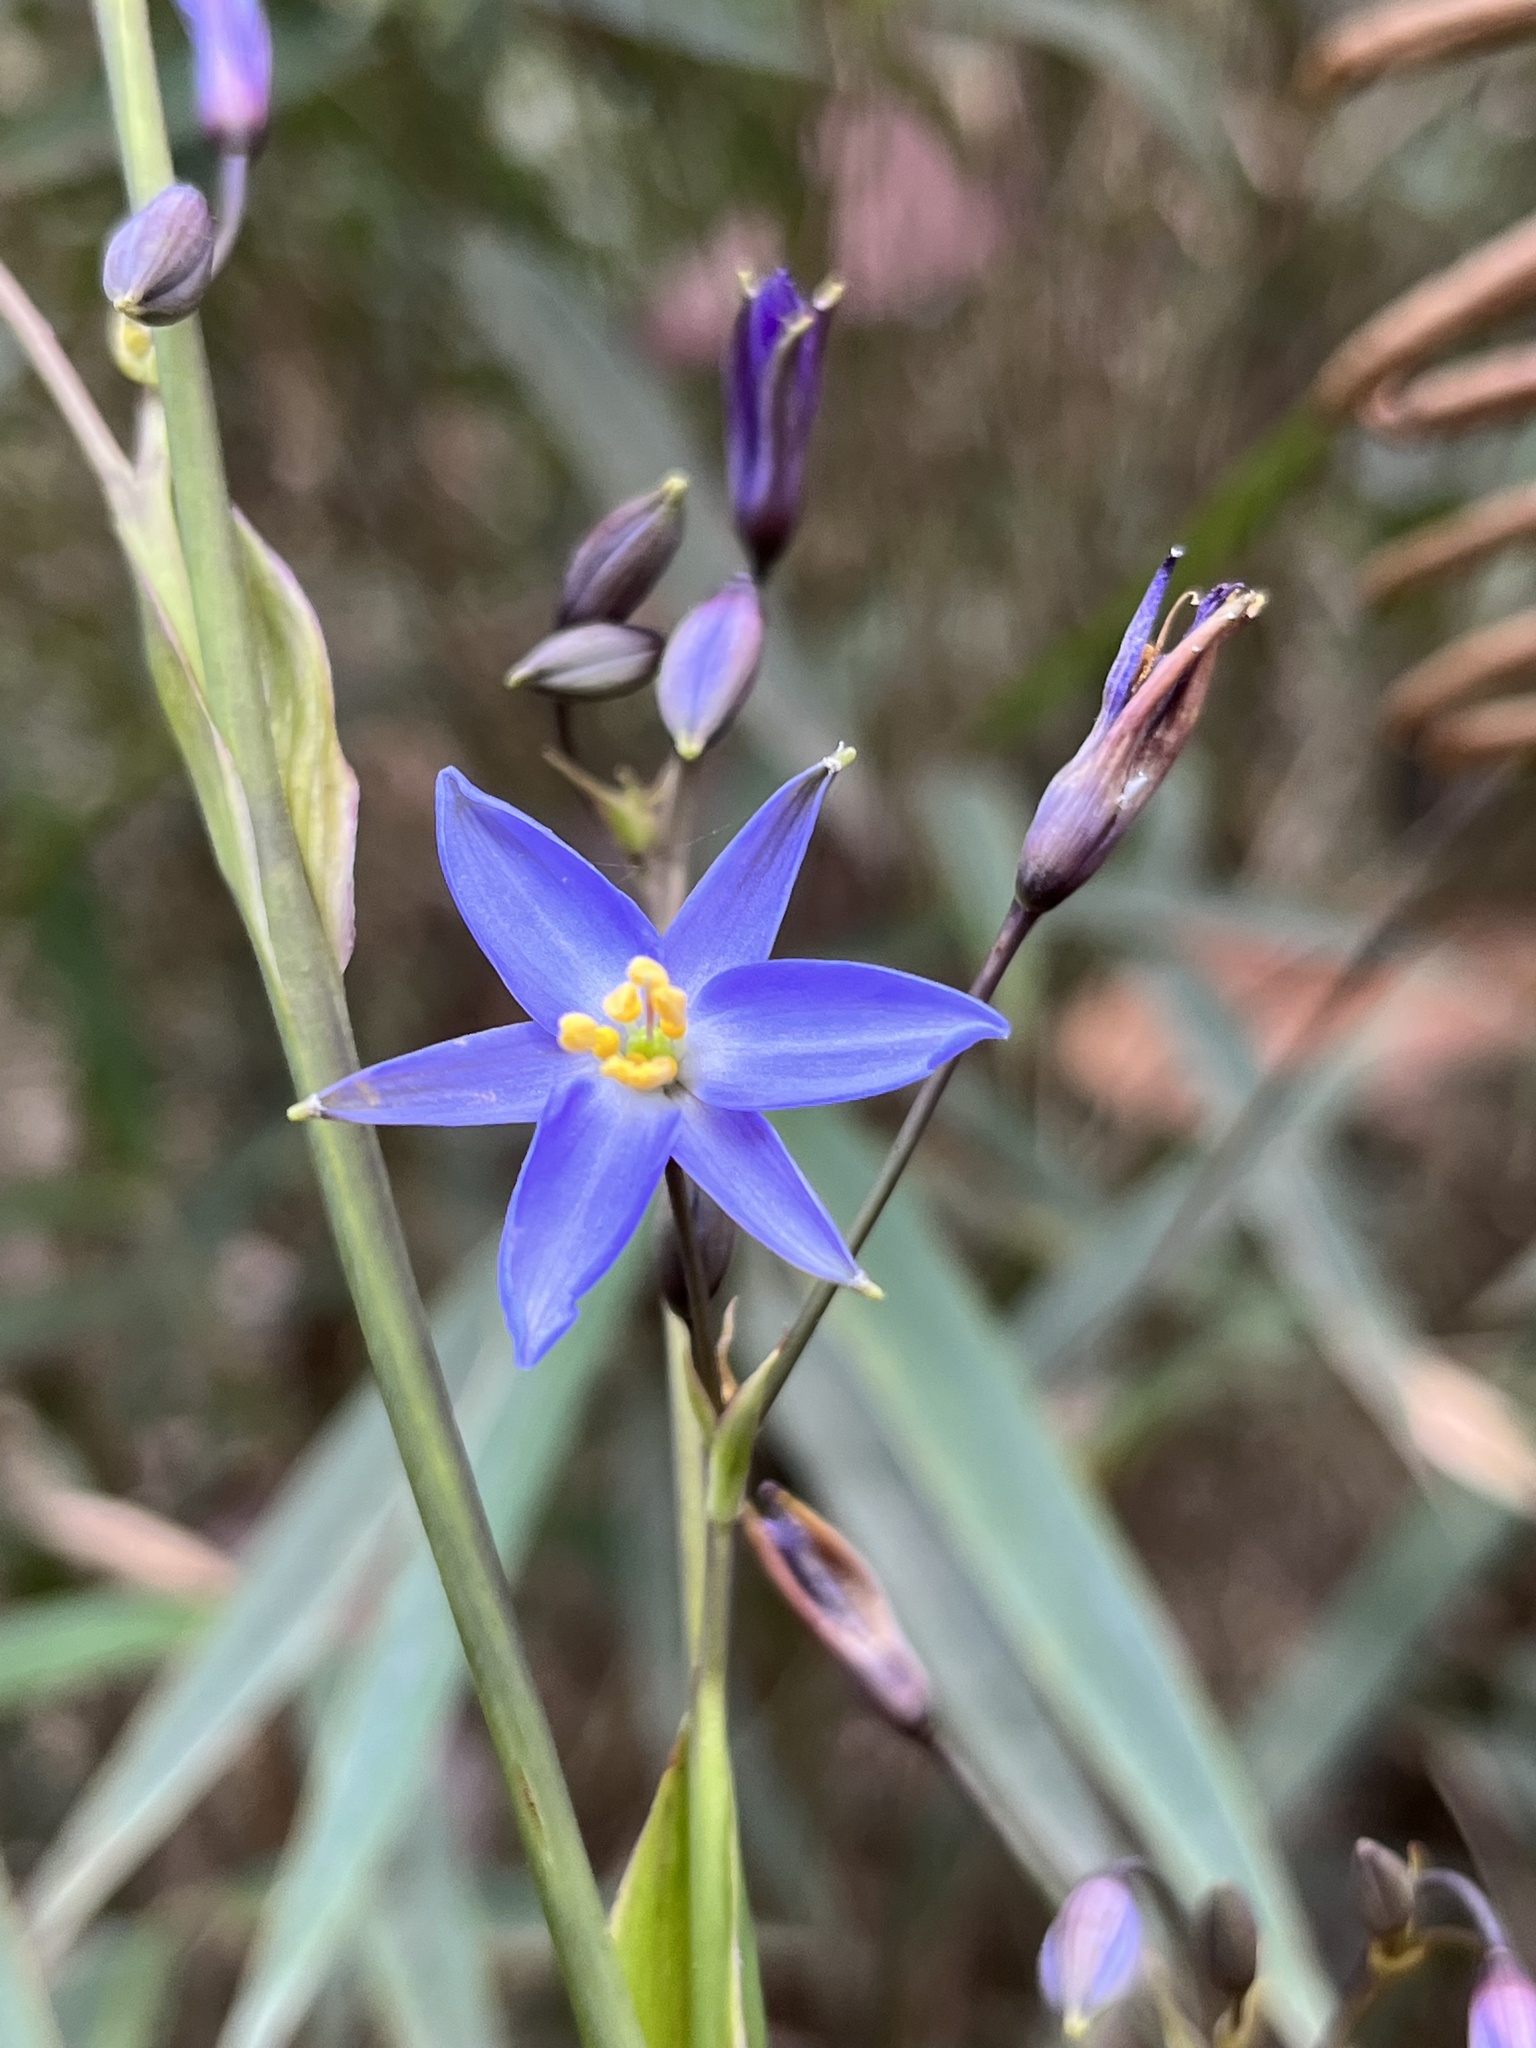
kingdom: Plantae
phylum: Tracheophyta
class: Liliopsida
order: Asparagales
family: Asphodelaceae
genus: Excremis
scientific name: Excremis coarctata
